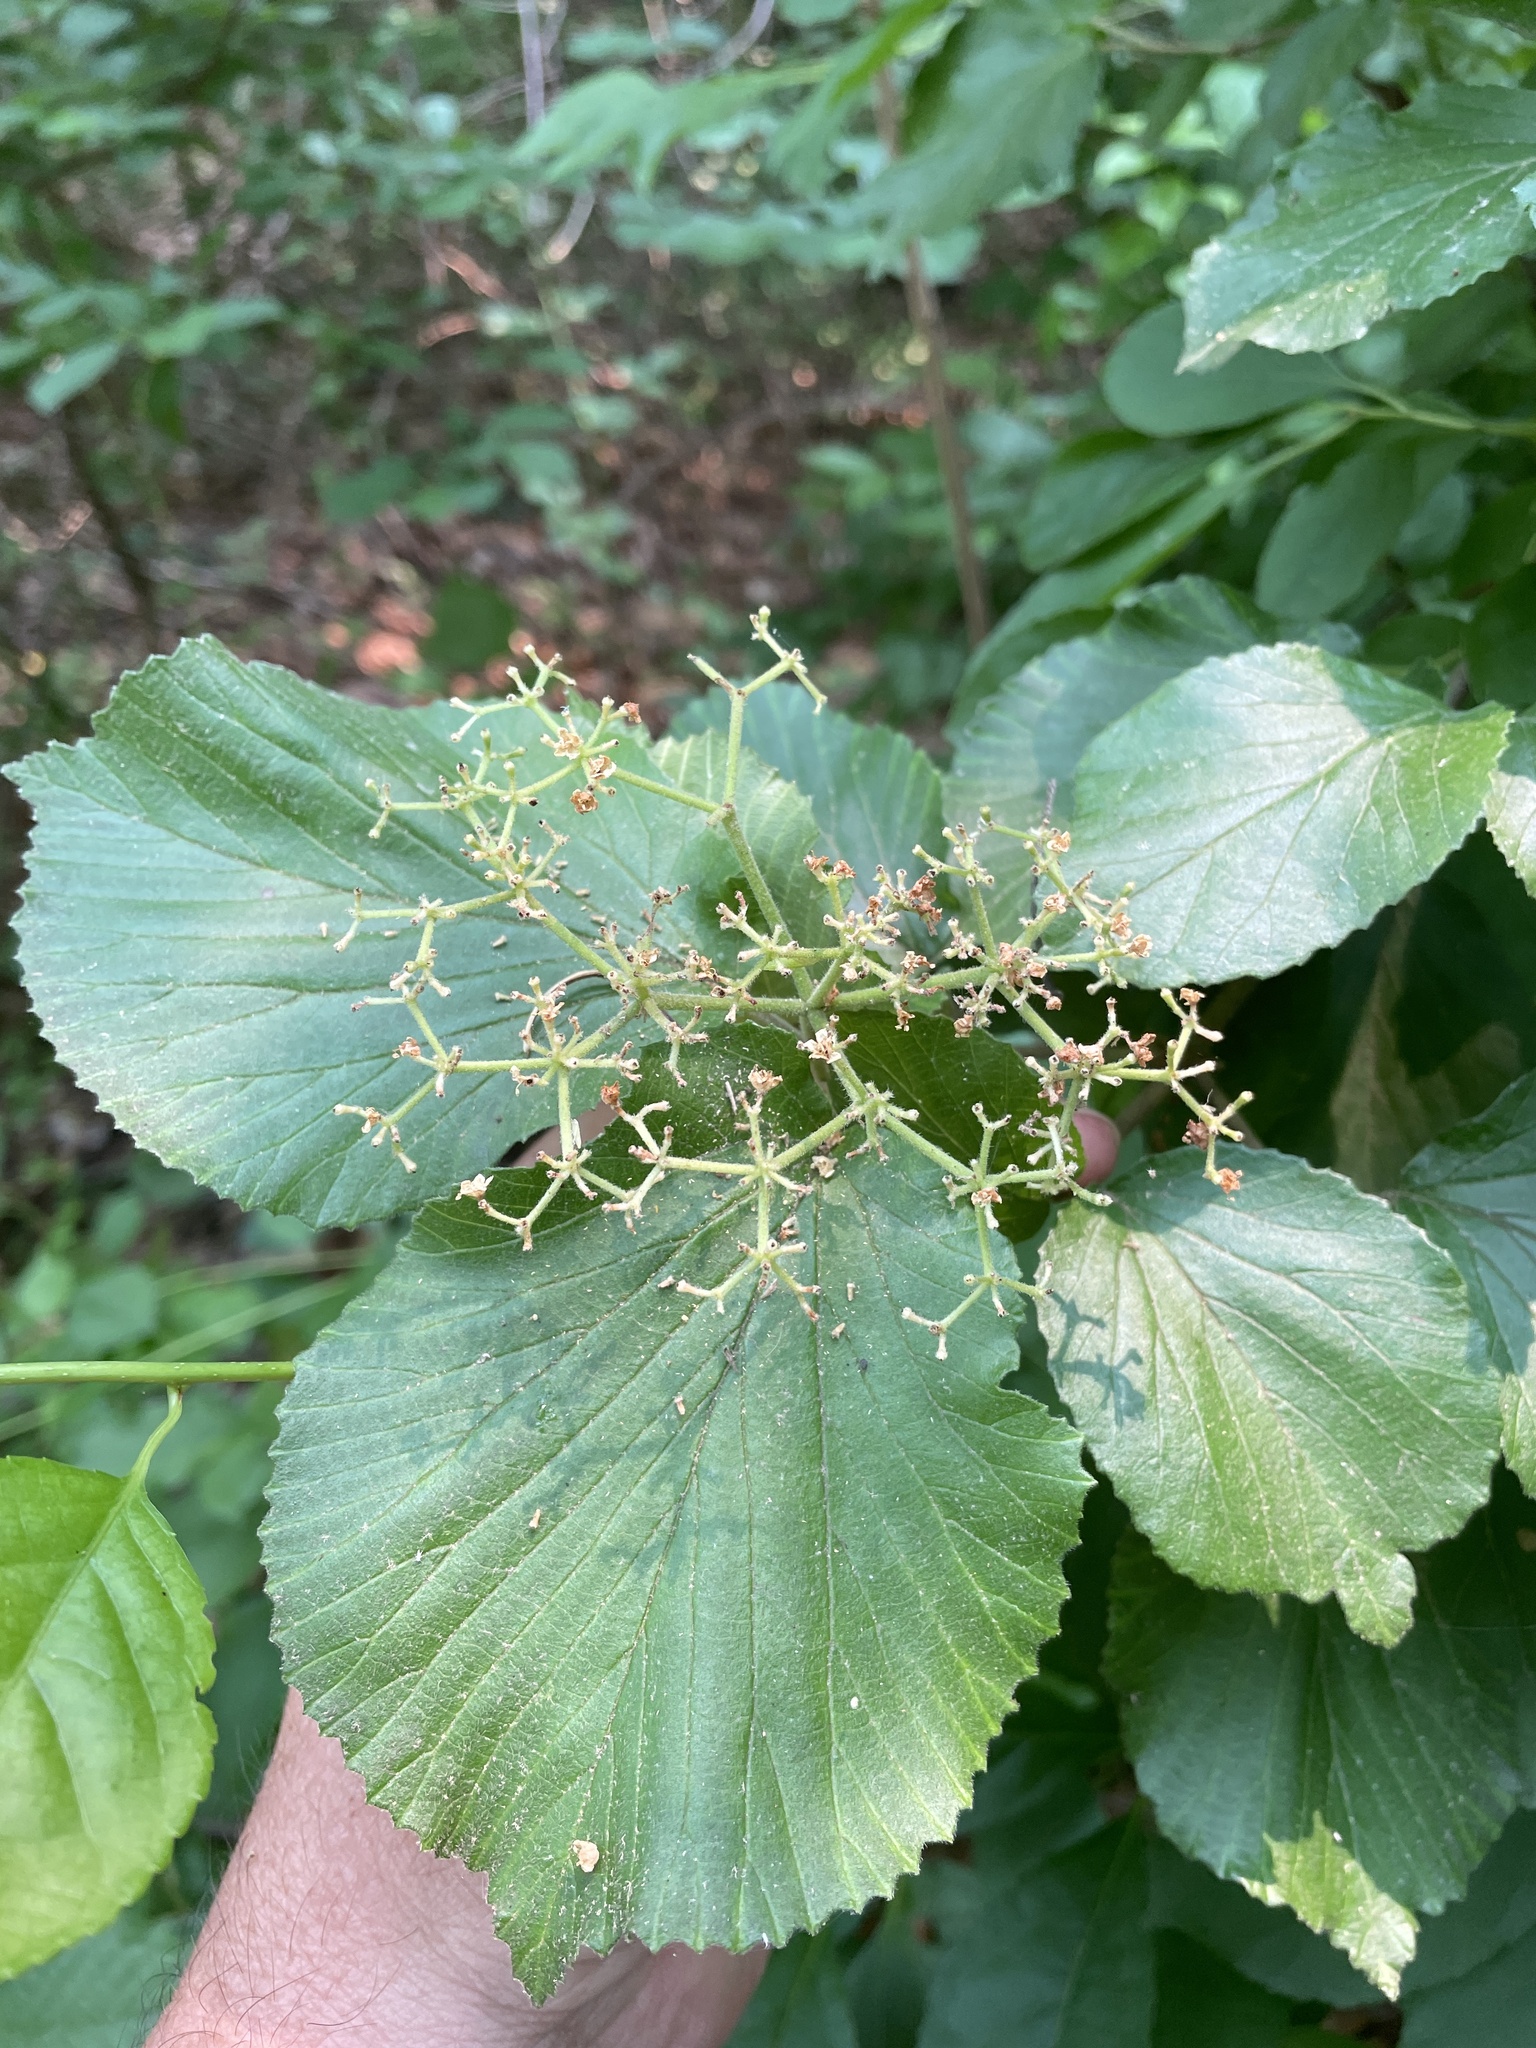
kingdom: Plantae
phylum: Tracheophyta
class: Magnoliopsida
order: Dipsacales
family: Viburnaceae
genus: Viburnum
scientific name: Viburnum dilatatum
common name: Linden arrowwood
